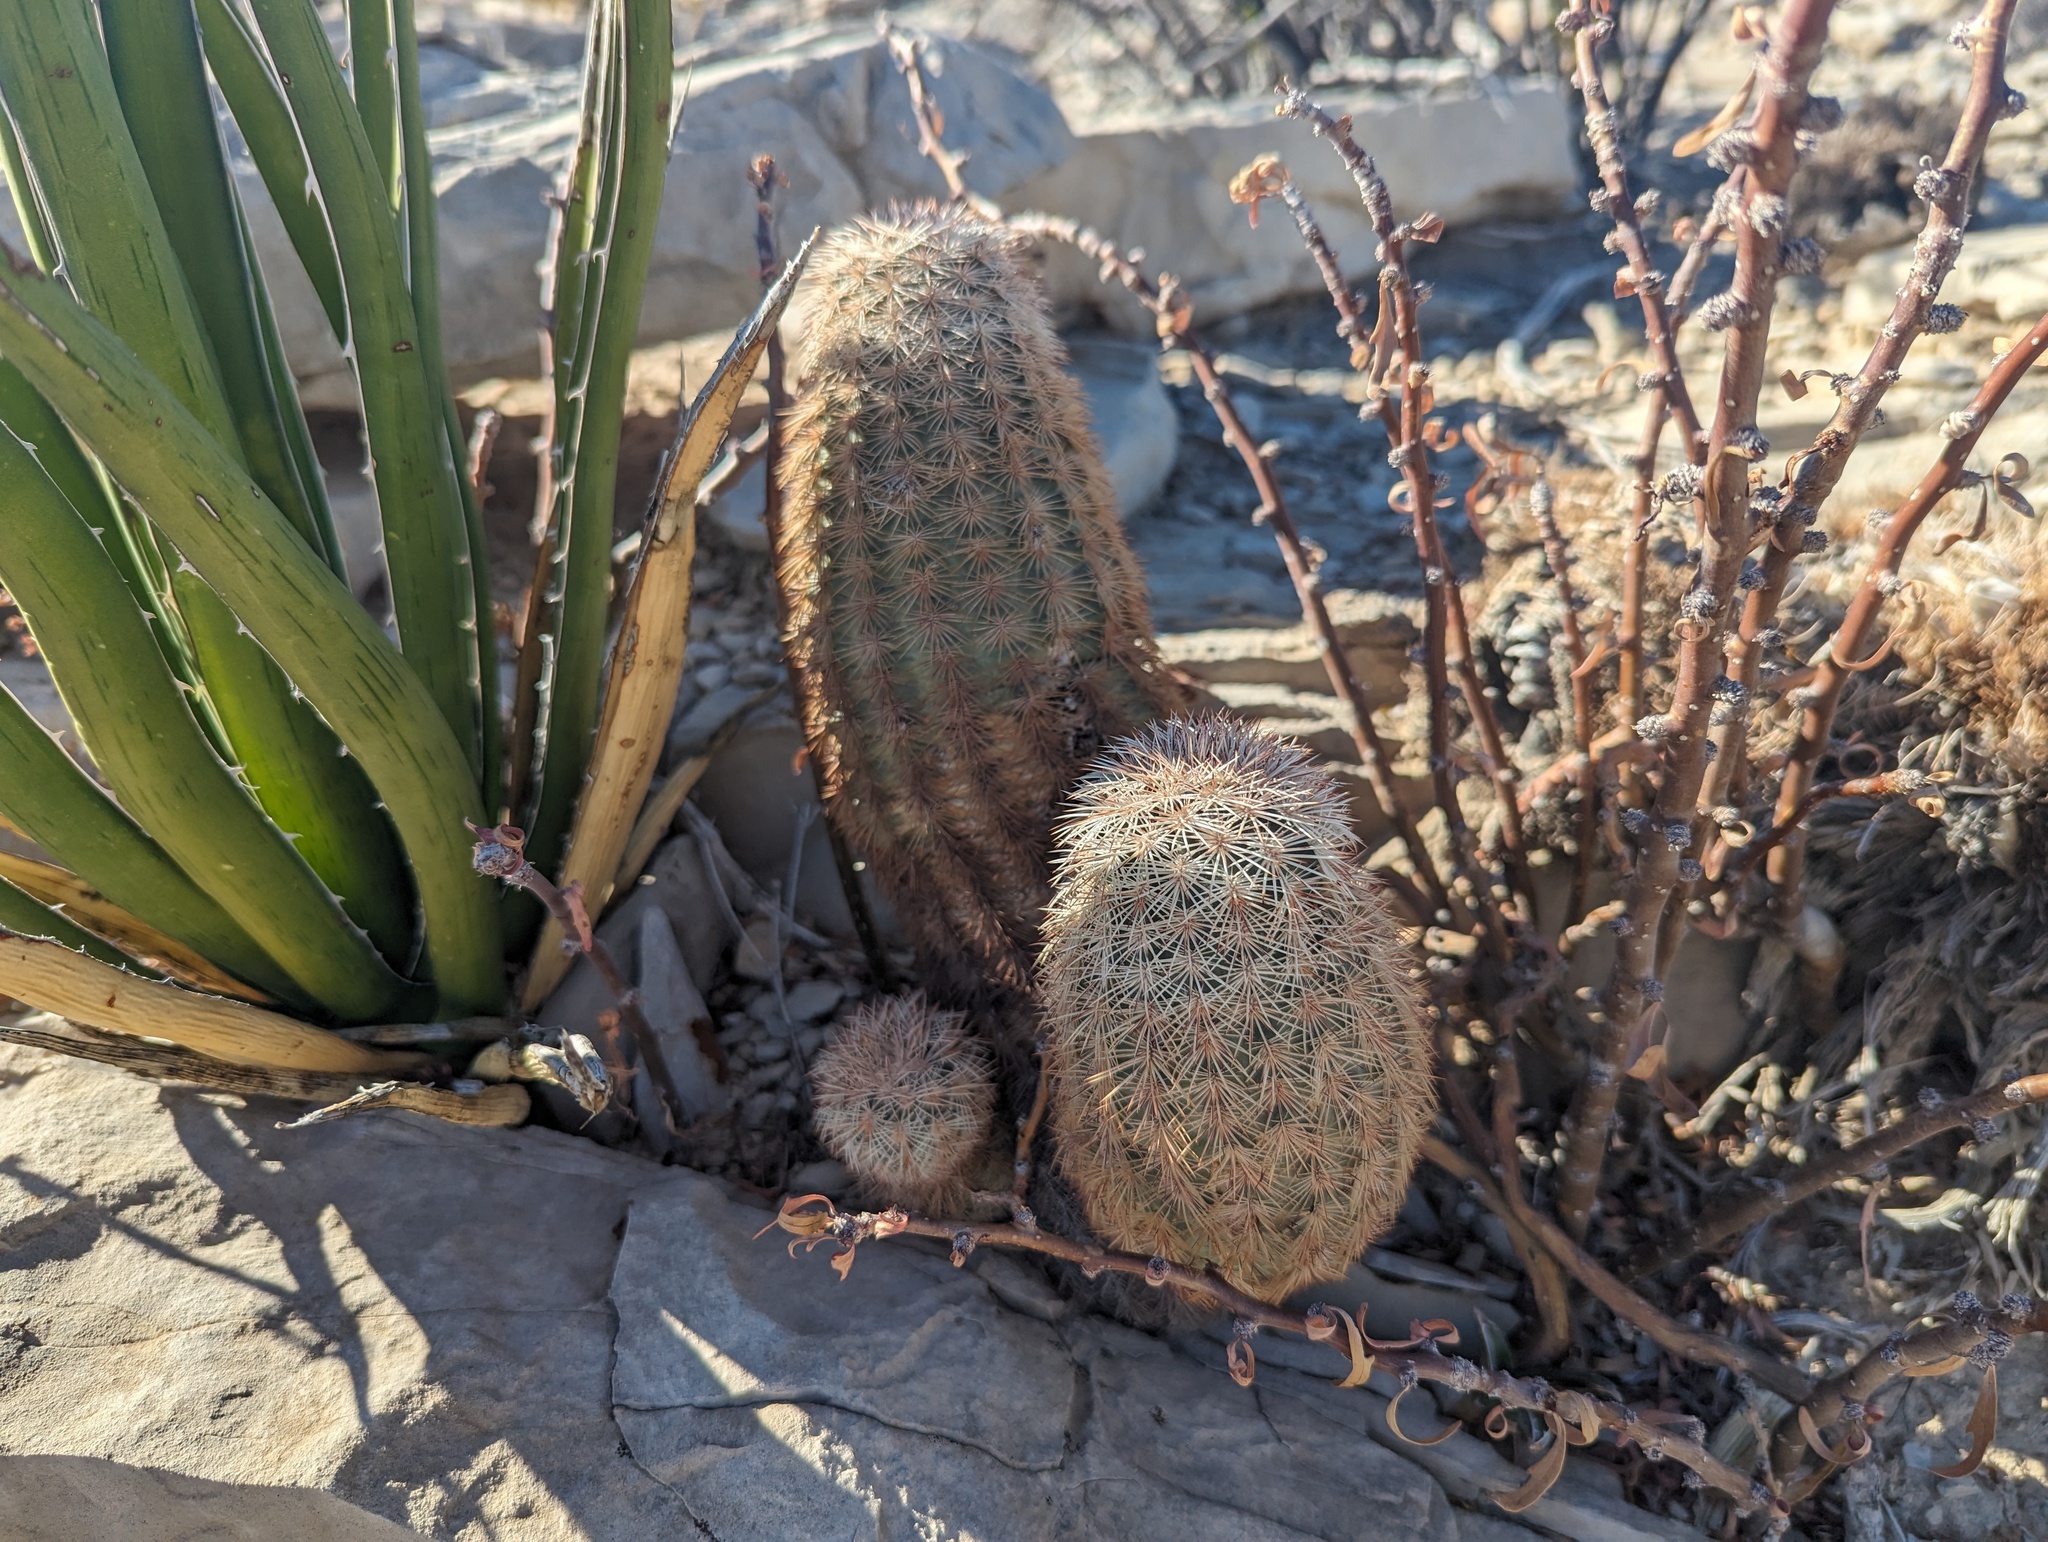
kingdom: Plantae
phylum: Tracheophyta
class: Magnoliopsida
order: Caryophyllales
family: Cactaceae
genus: Echinocereus
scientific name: Echinocereus dasyacanthus
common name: Spiny hedgehog cactus
